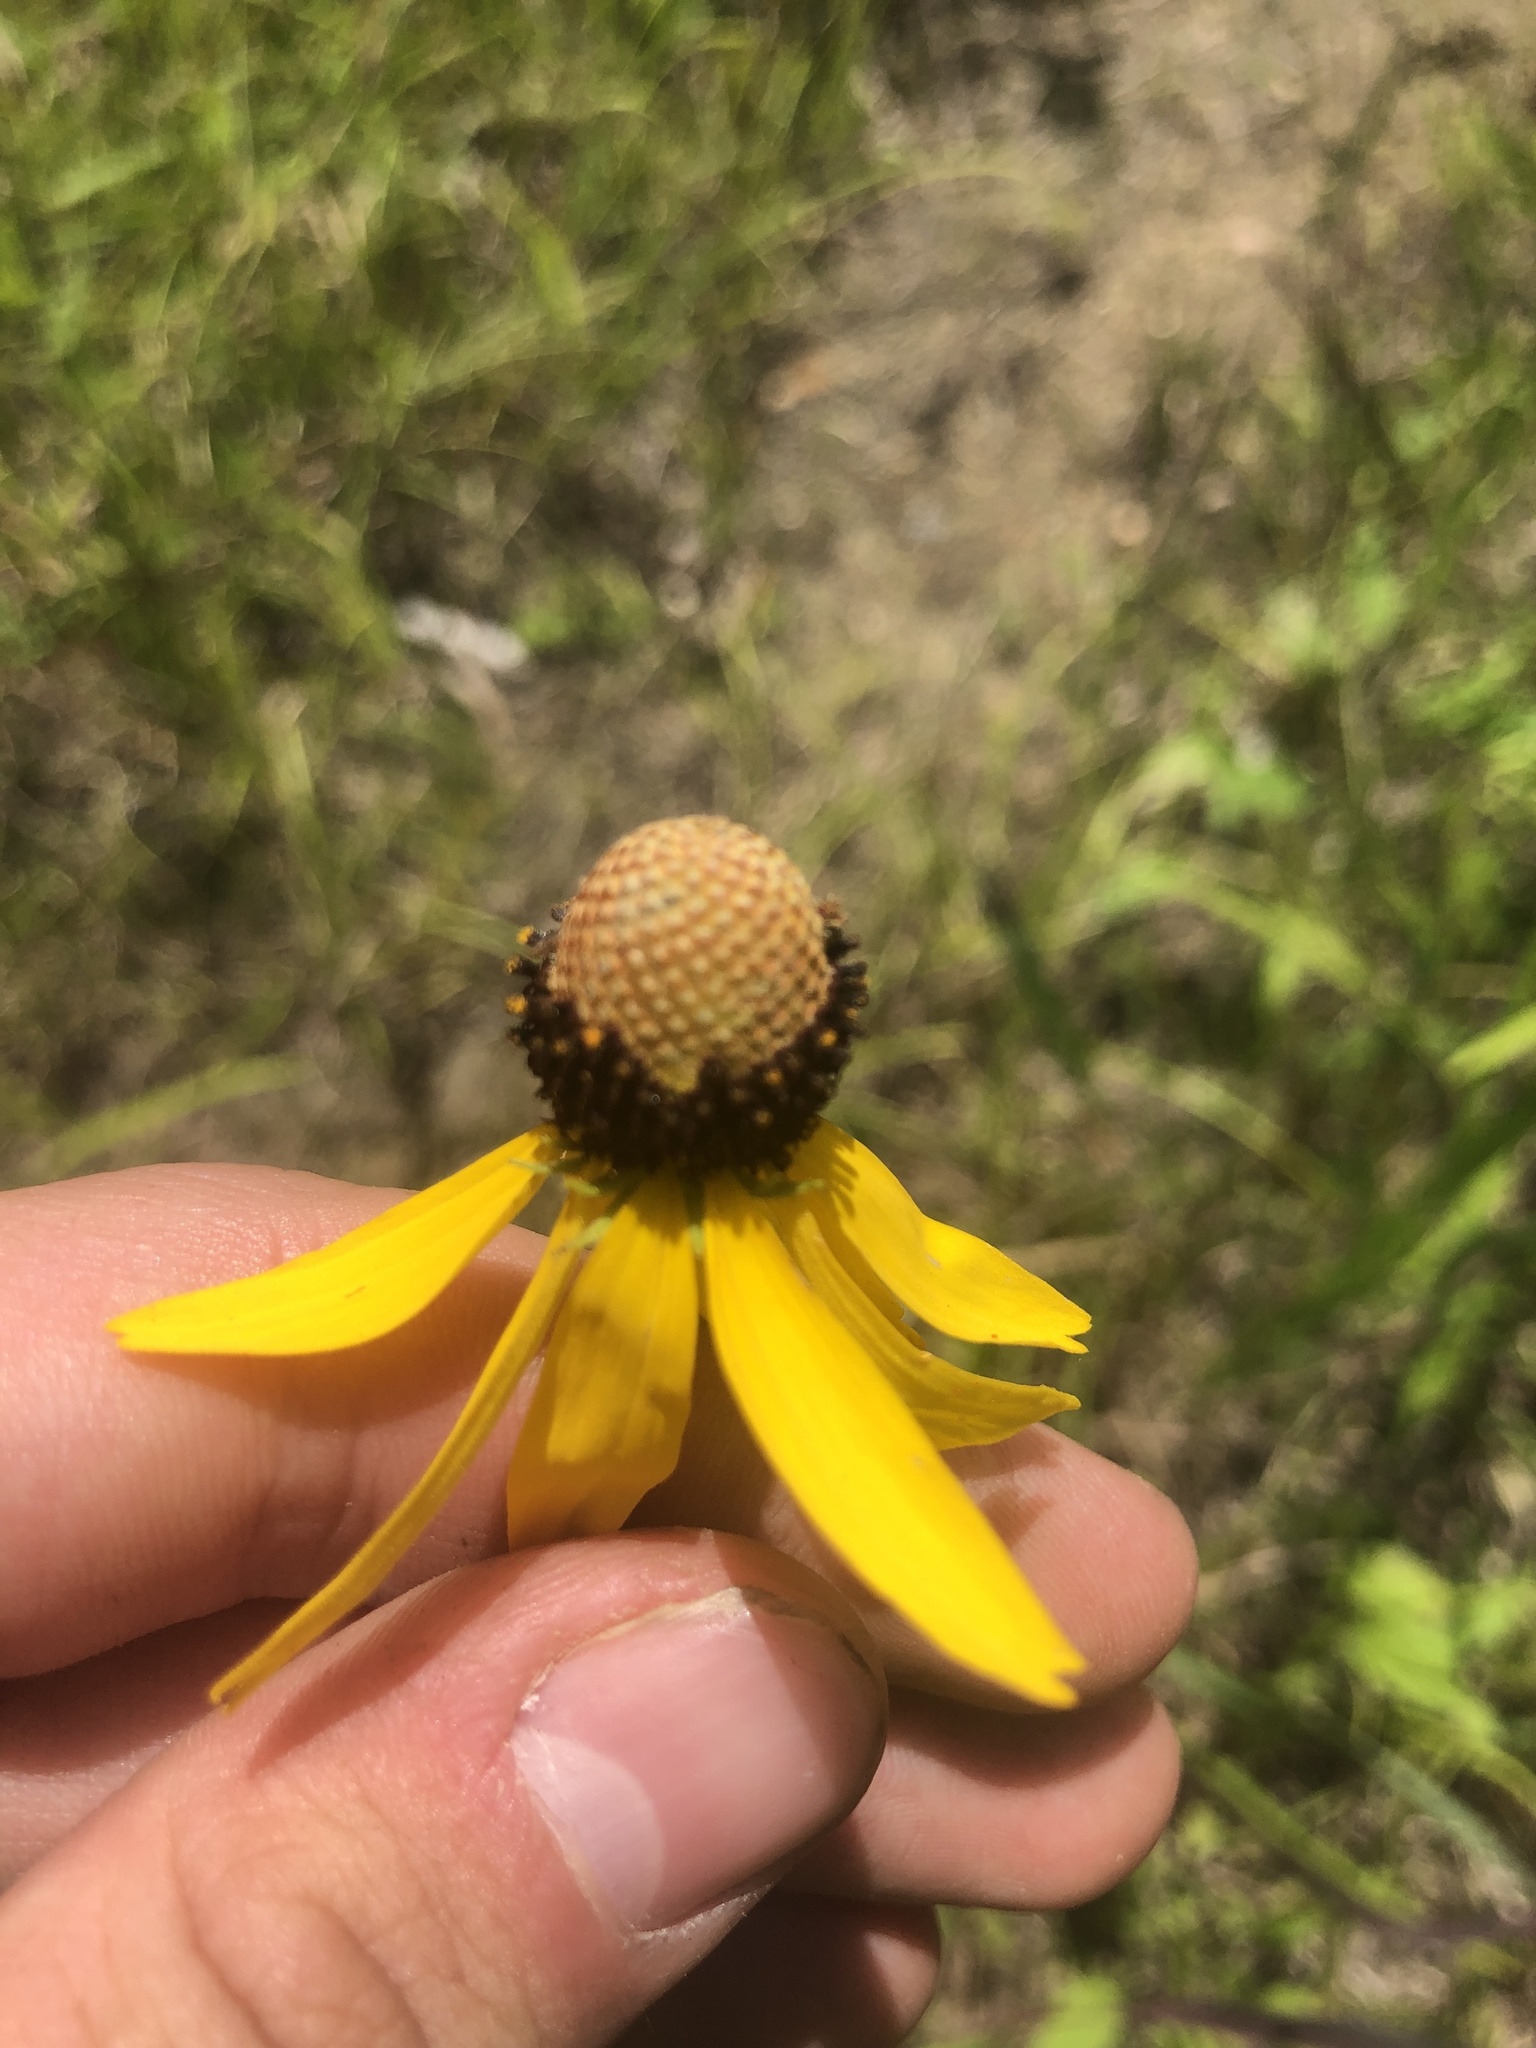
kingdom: Plantae
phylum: Tracheophyta
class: Magnoliopsida
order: Asterales
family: Asteraceae
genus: Ratibida
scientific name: Ratibida pinnata
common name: Drooping prairie-coneflower
